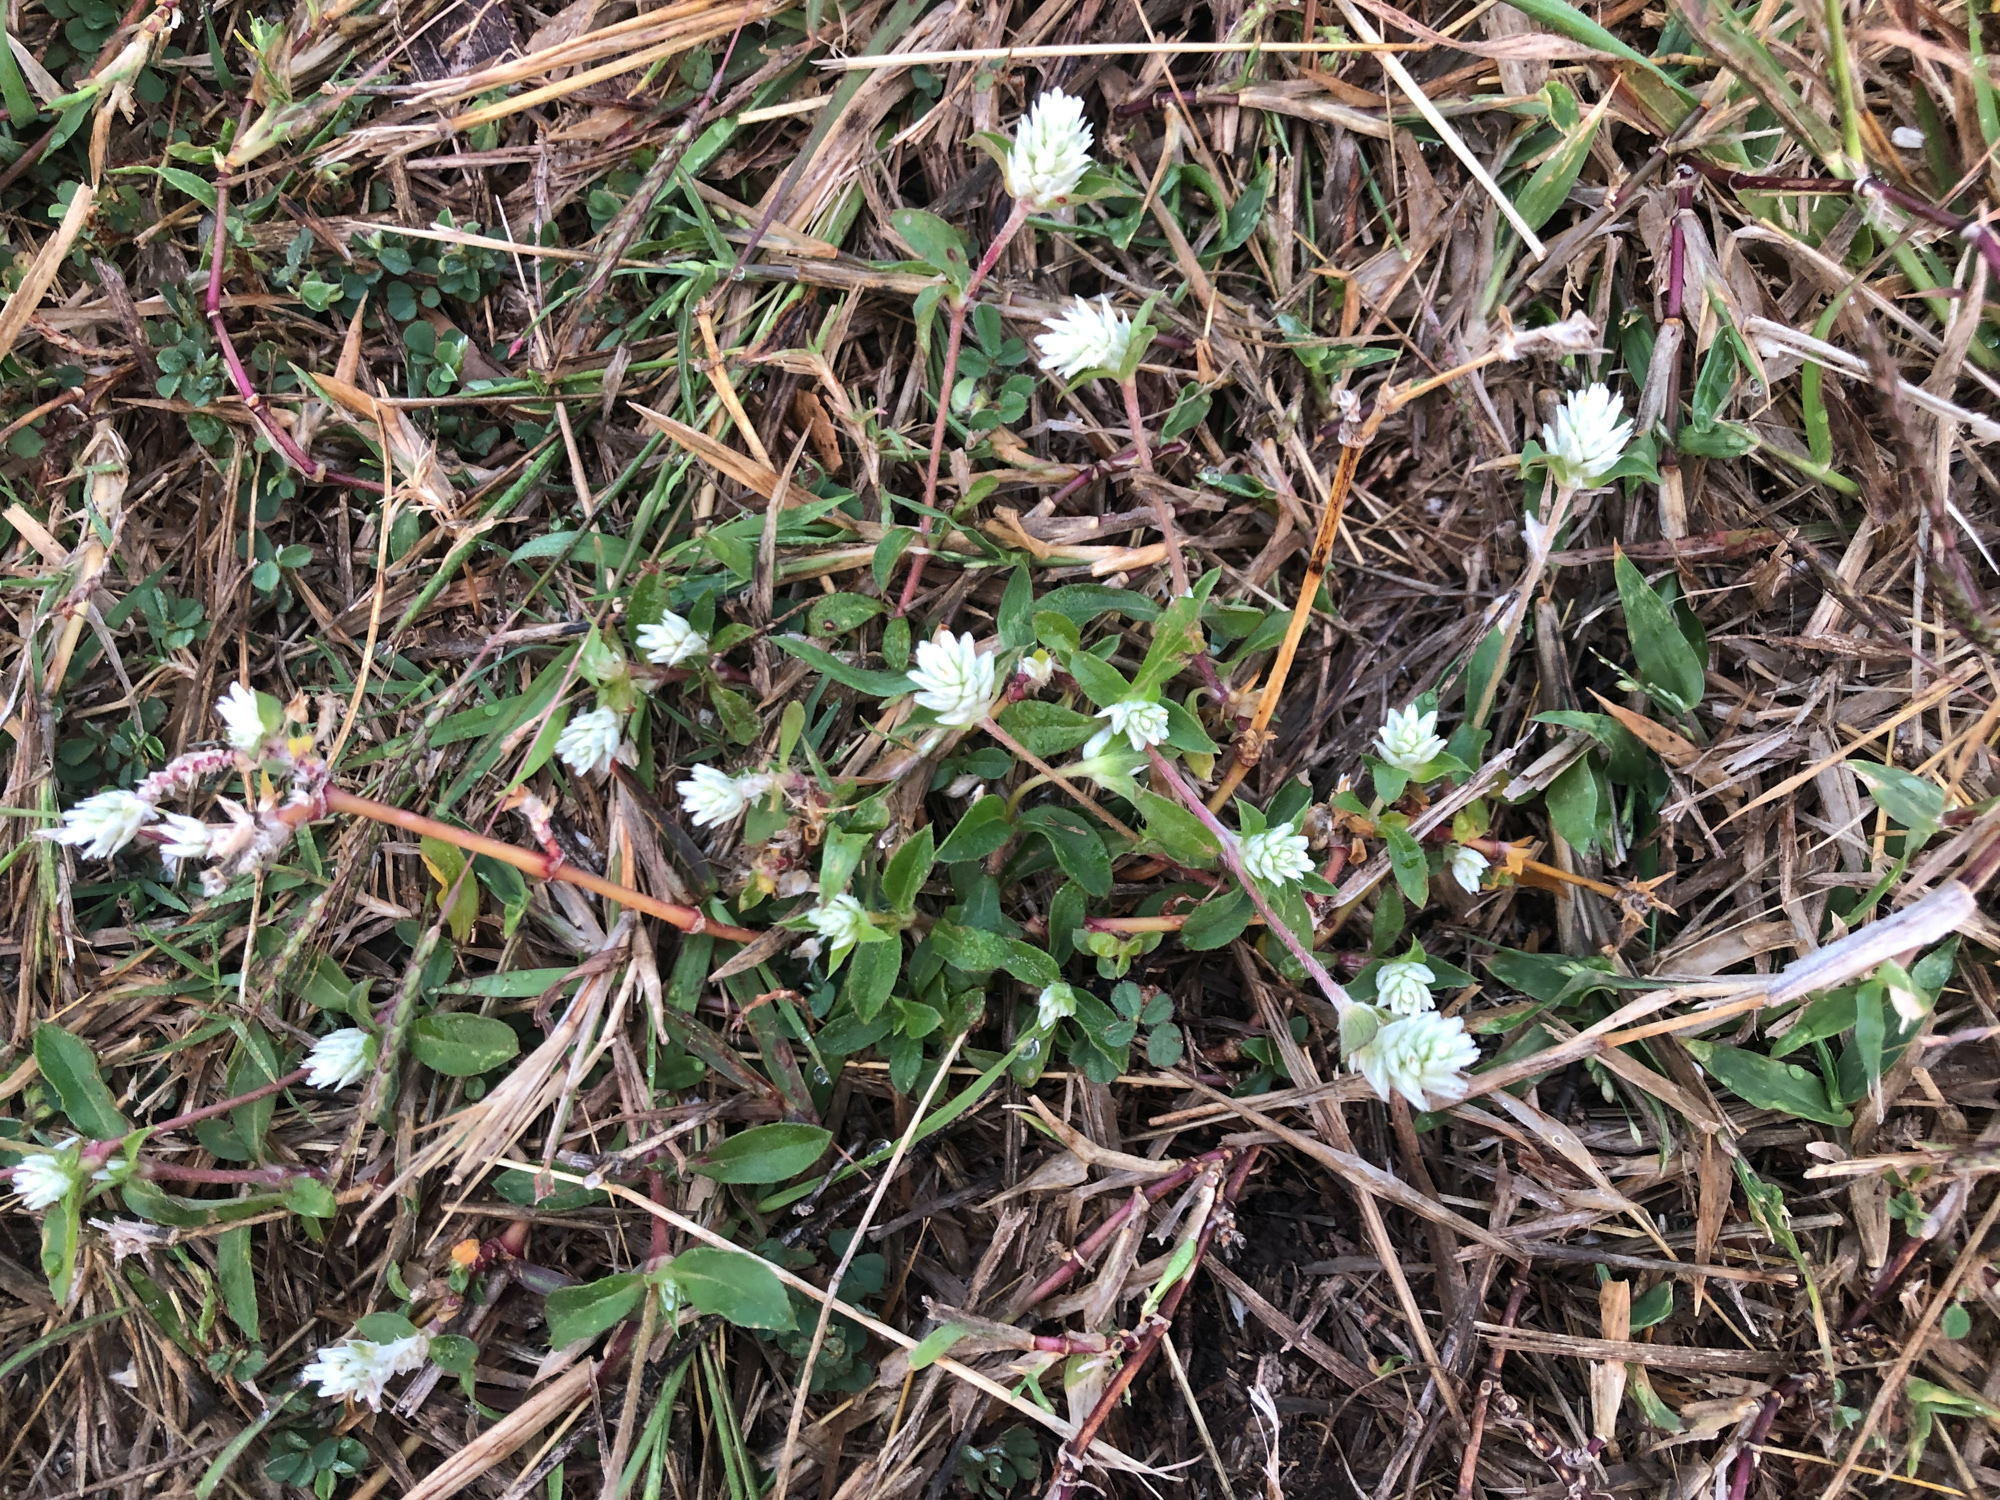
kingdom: Plantae
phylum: Tracheophyta
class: Magnoliopsida
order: Caryophyllales
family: Amaranthaceae
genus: Gomphrena
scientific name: Gomphrena serrata
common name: Arrasa con todo
